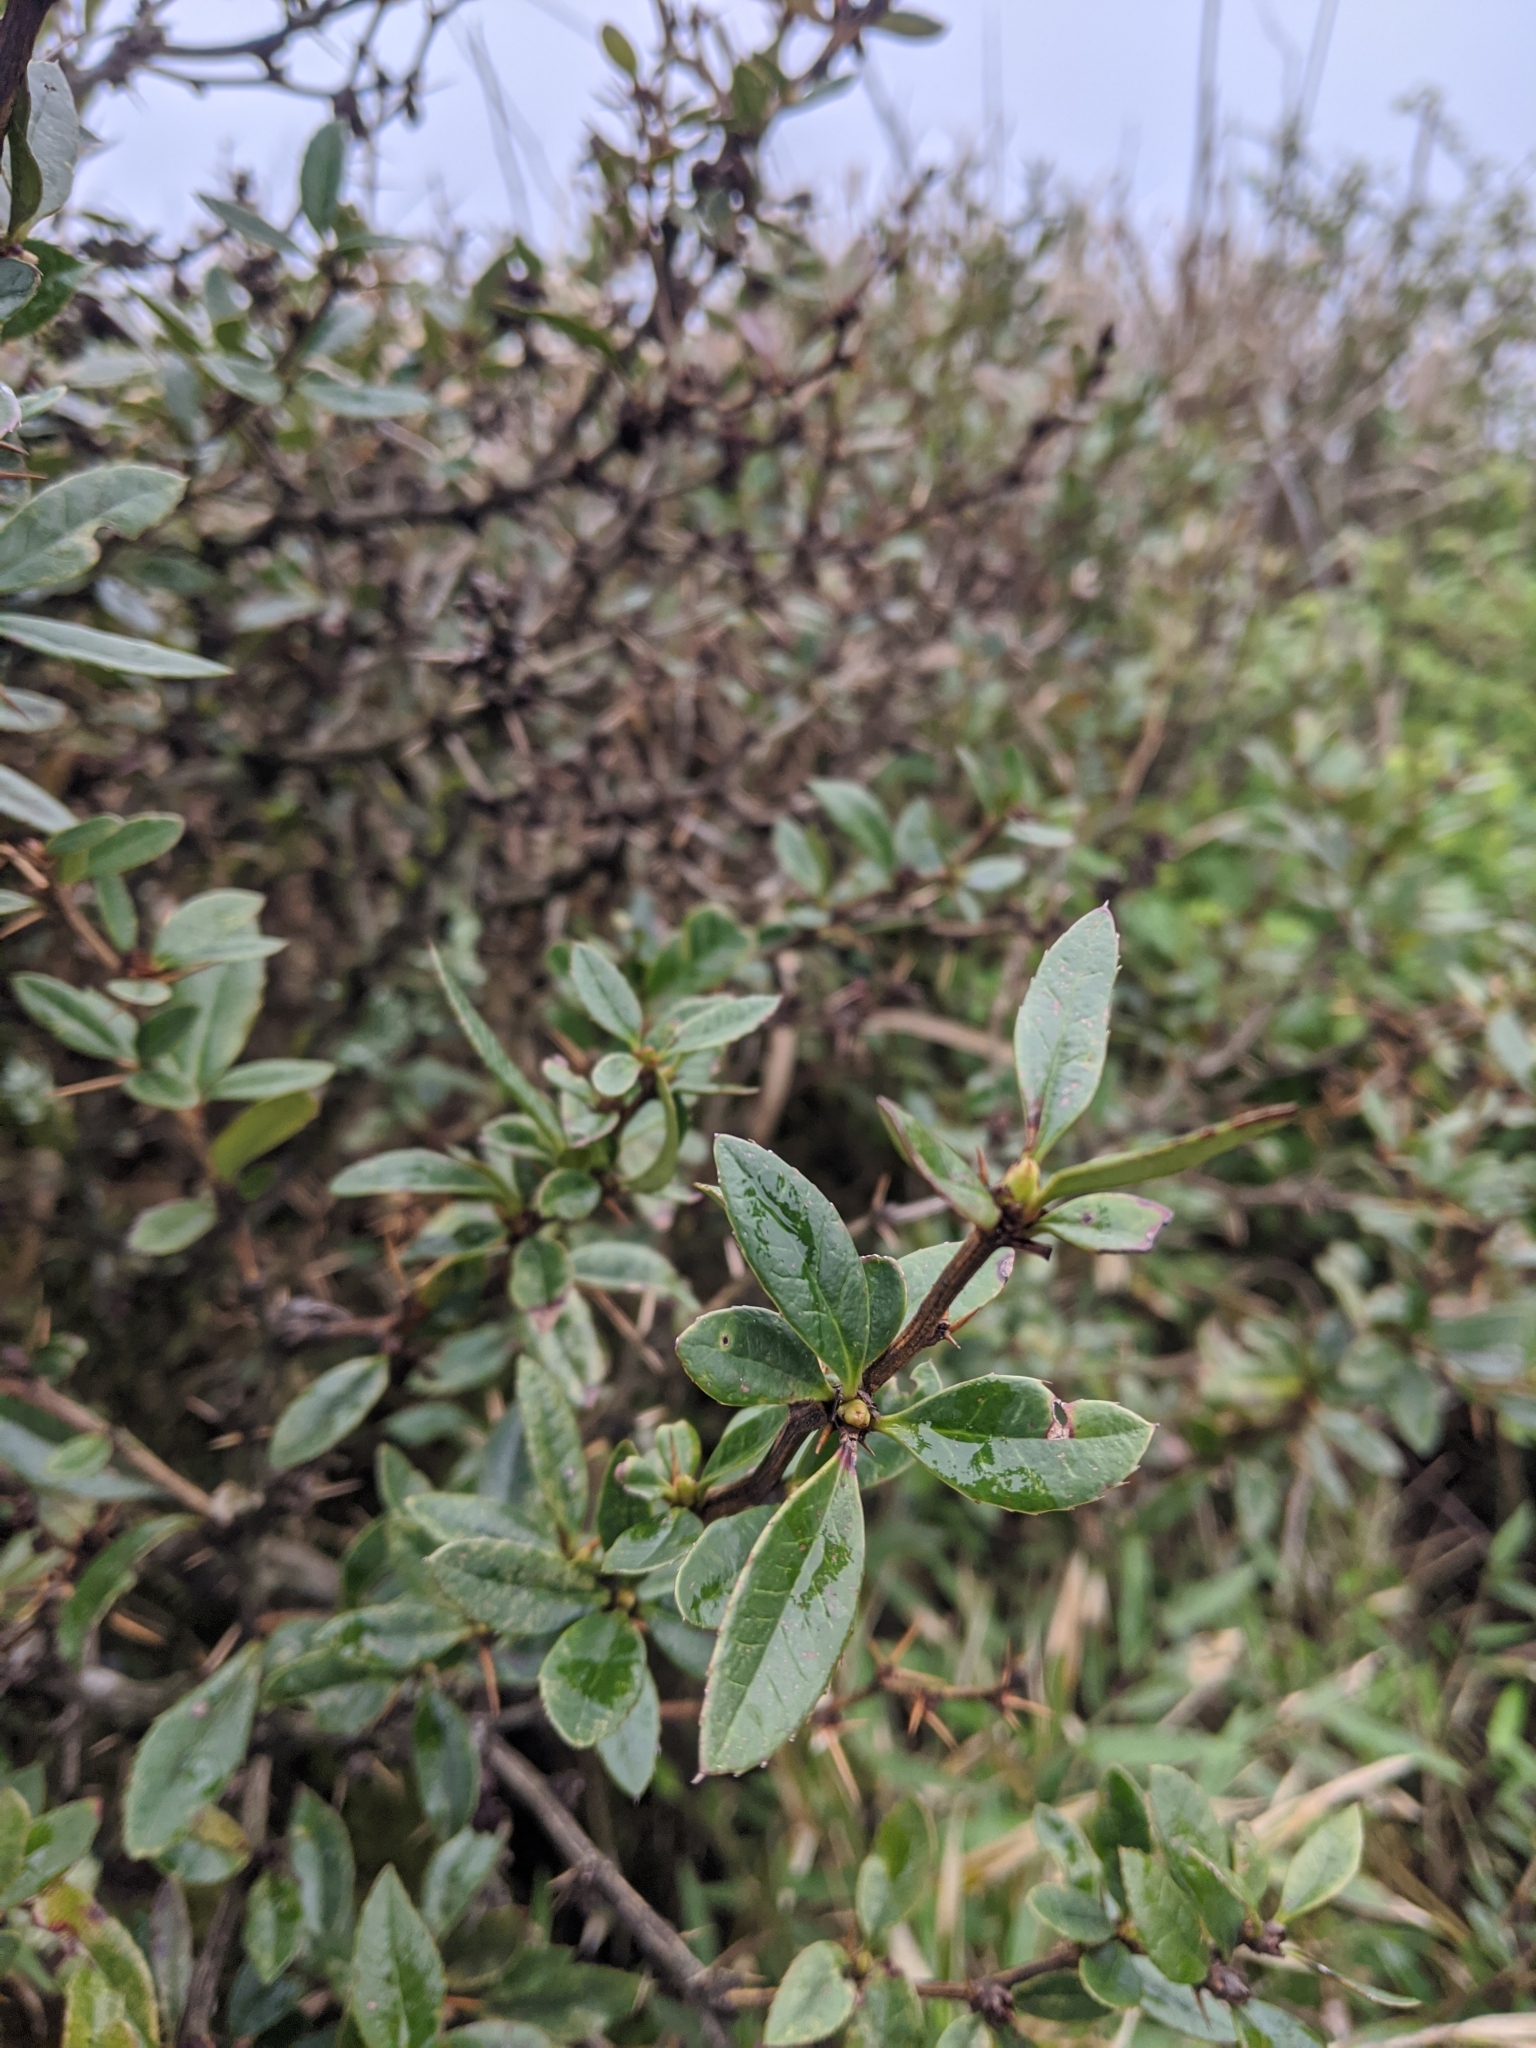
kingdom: Plantae
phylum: Tracheophyta
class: Magnoliopsida
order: Ranunculales
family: Berberidaceae
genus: Berberis
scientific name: Berberis kawakamii
